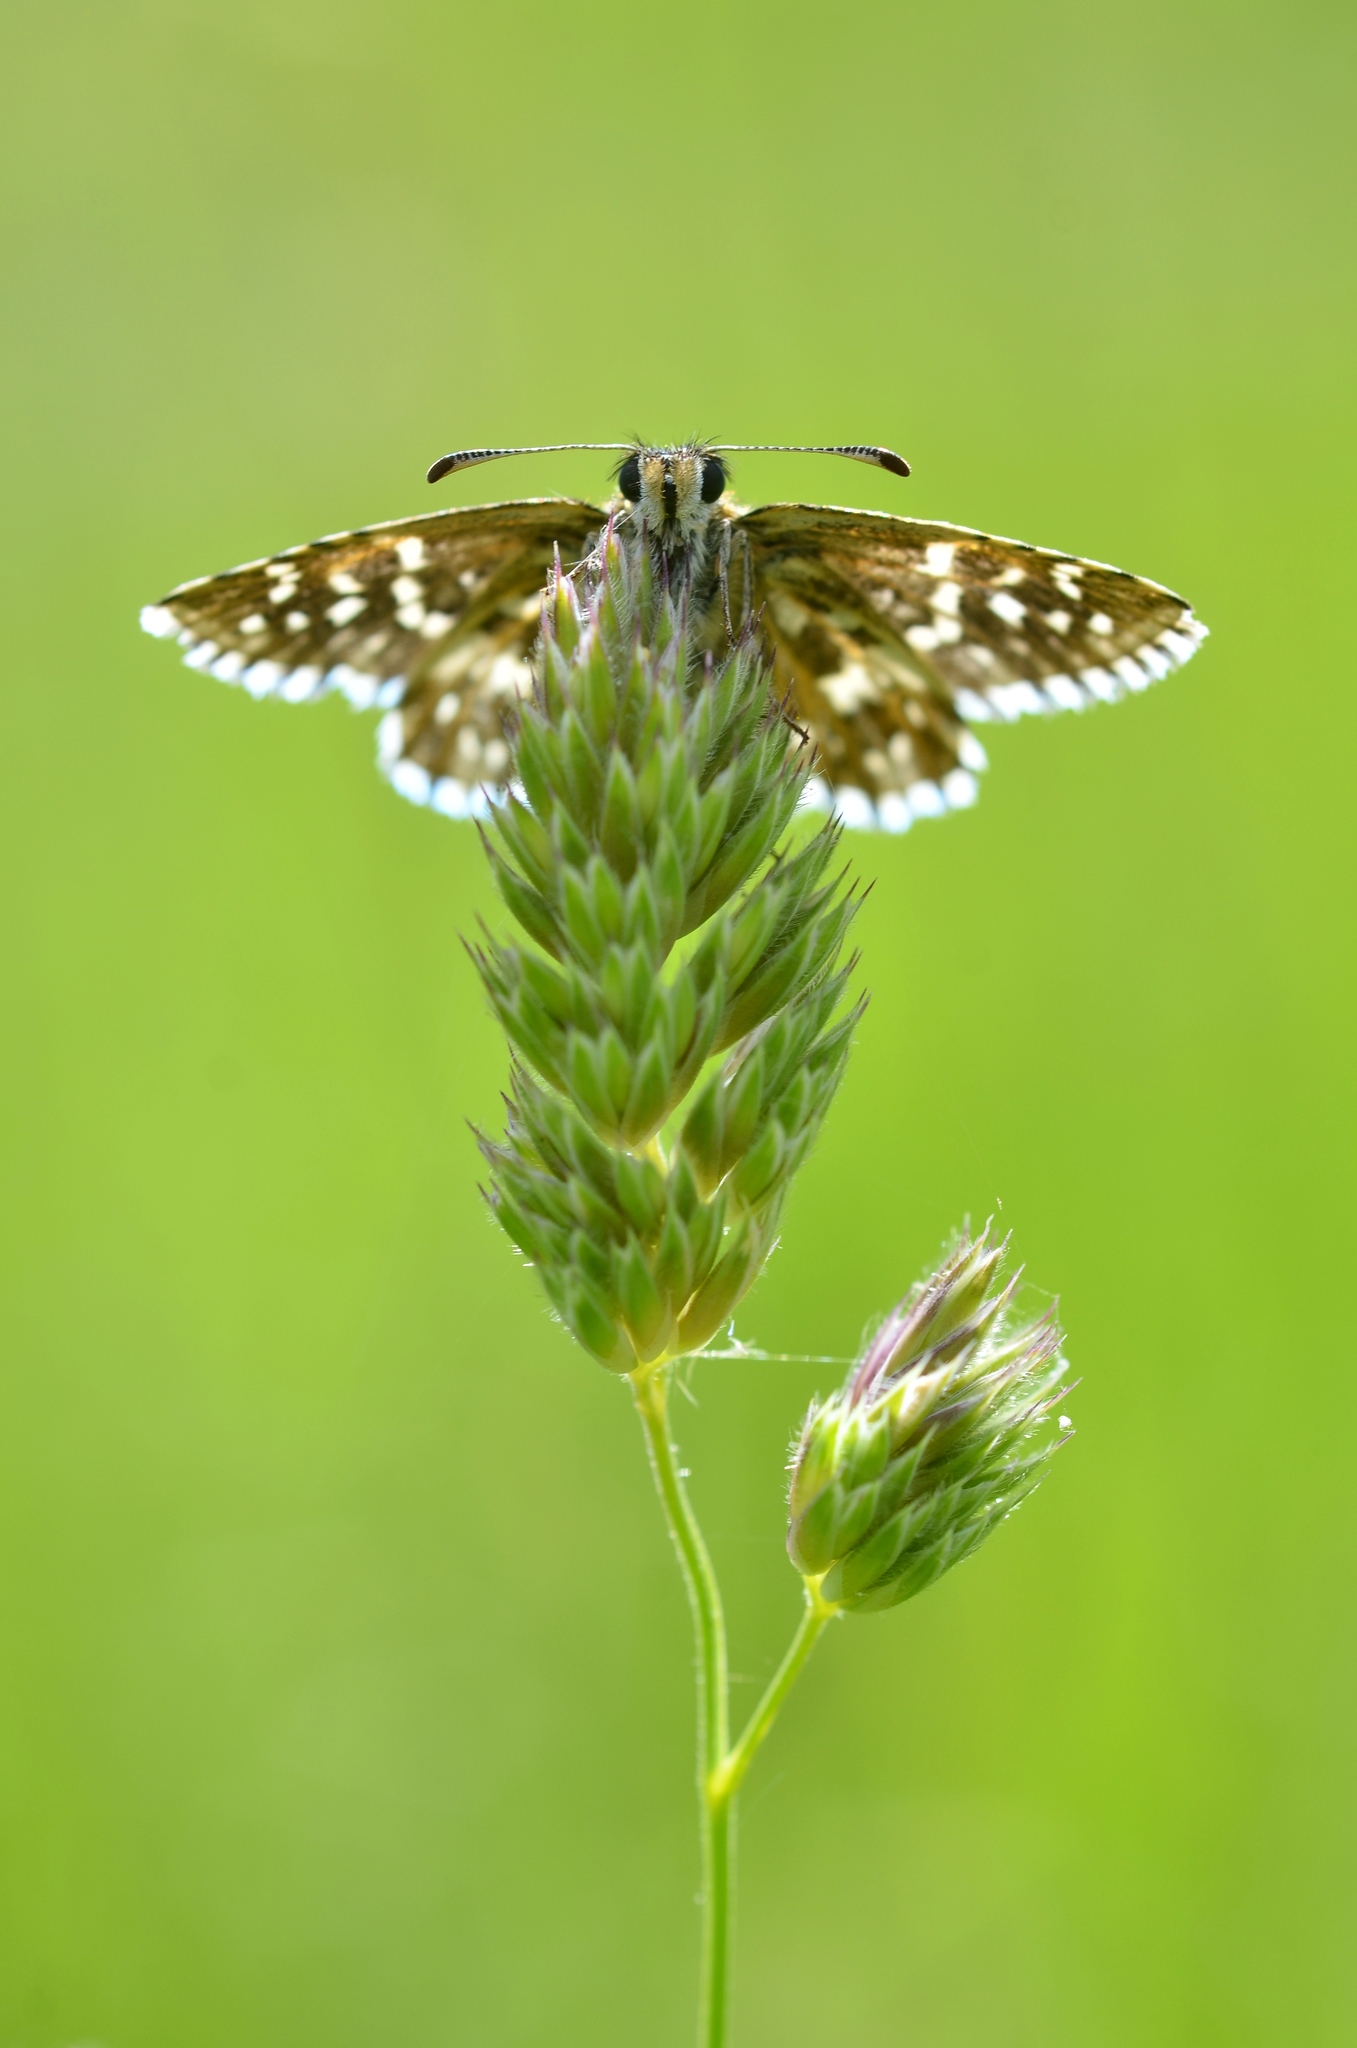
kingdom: Animalia
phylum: Arthropoda
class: Insecta
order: Lepidoptera
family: Hesperiidae
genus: Pyrgus
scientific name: Pyrgus malvae
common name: Grizzled skipper
